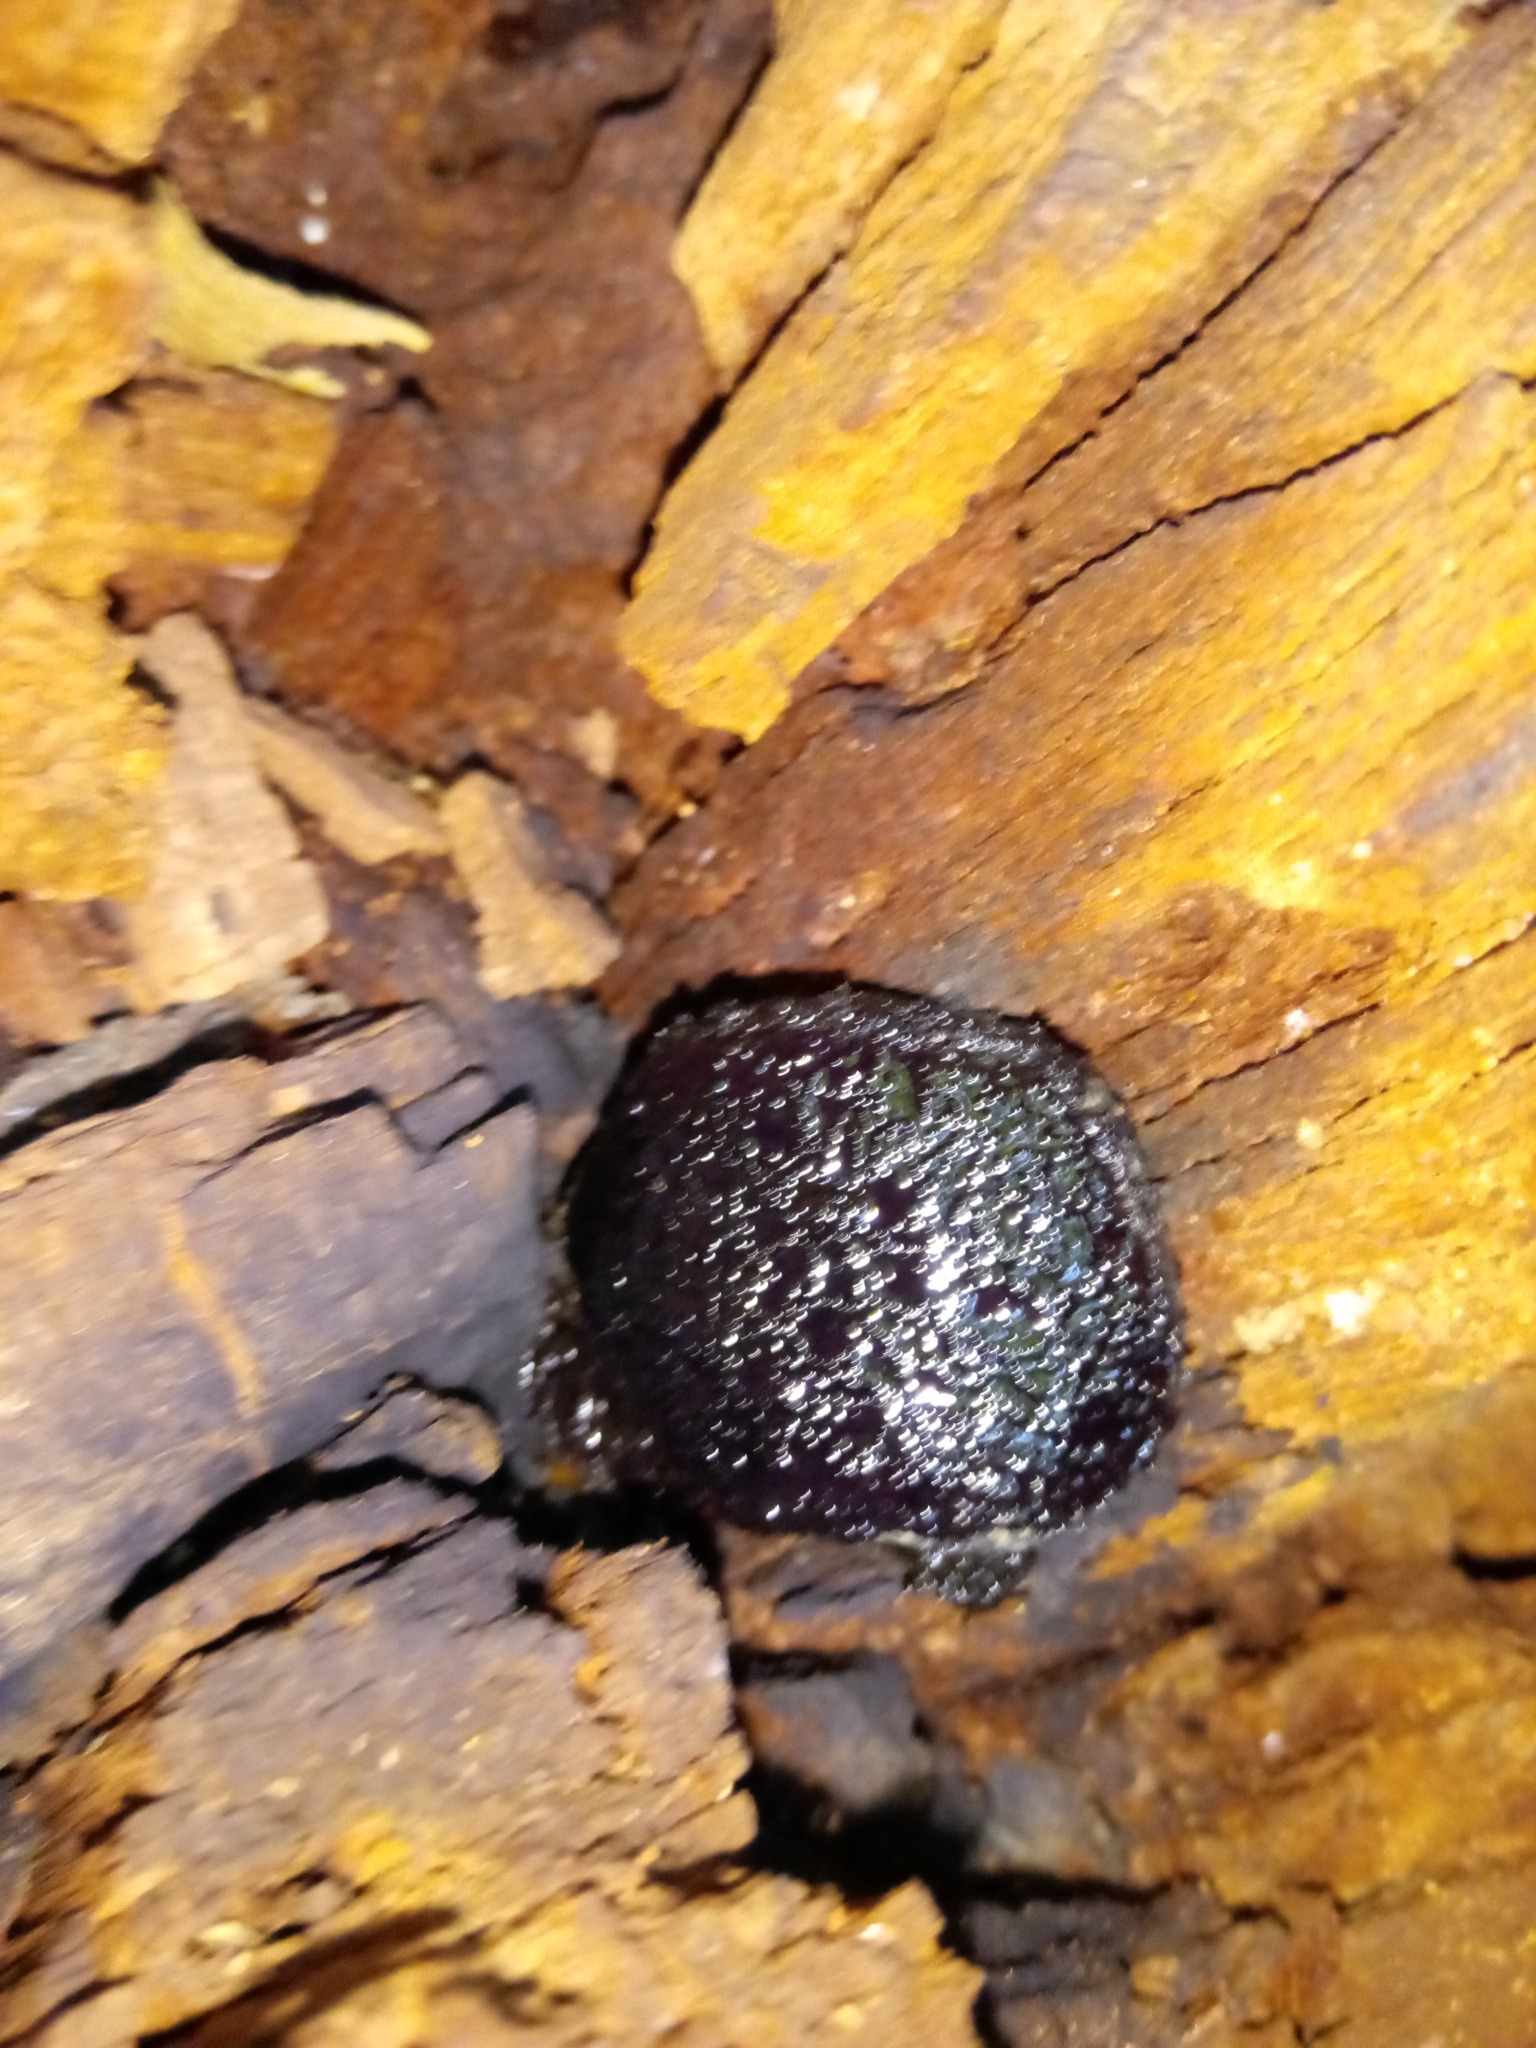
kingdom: Fungi
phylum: Ascomycota
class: Sordariomycetes
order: Boliniales
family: Boliniaceae
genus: Camarops
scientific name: Camarops petersii
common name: Dog's nose fungus
